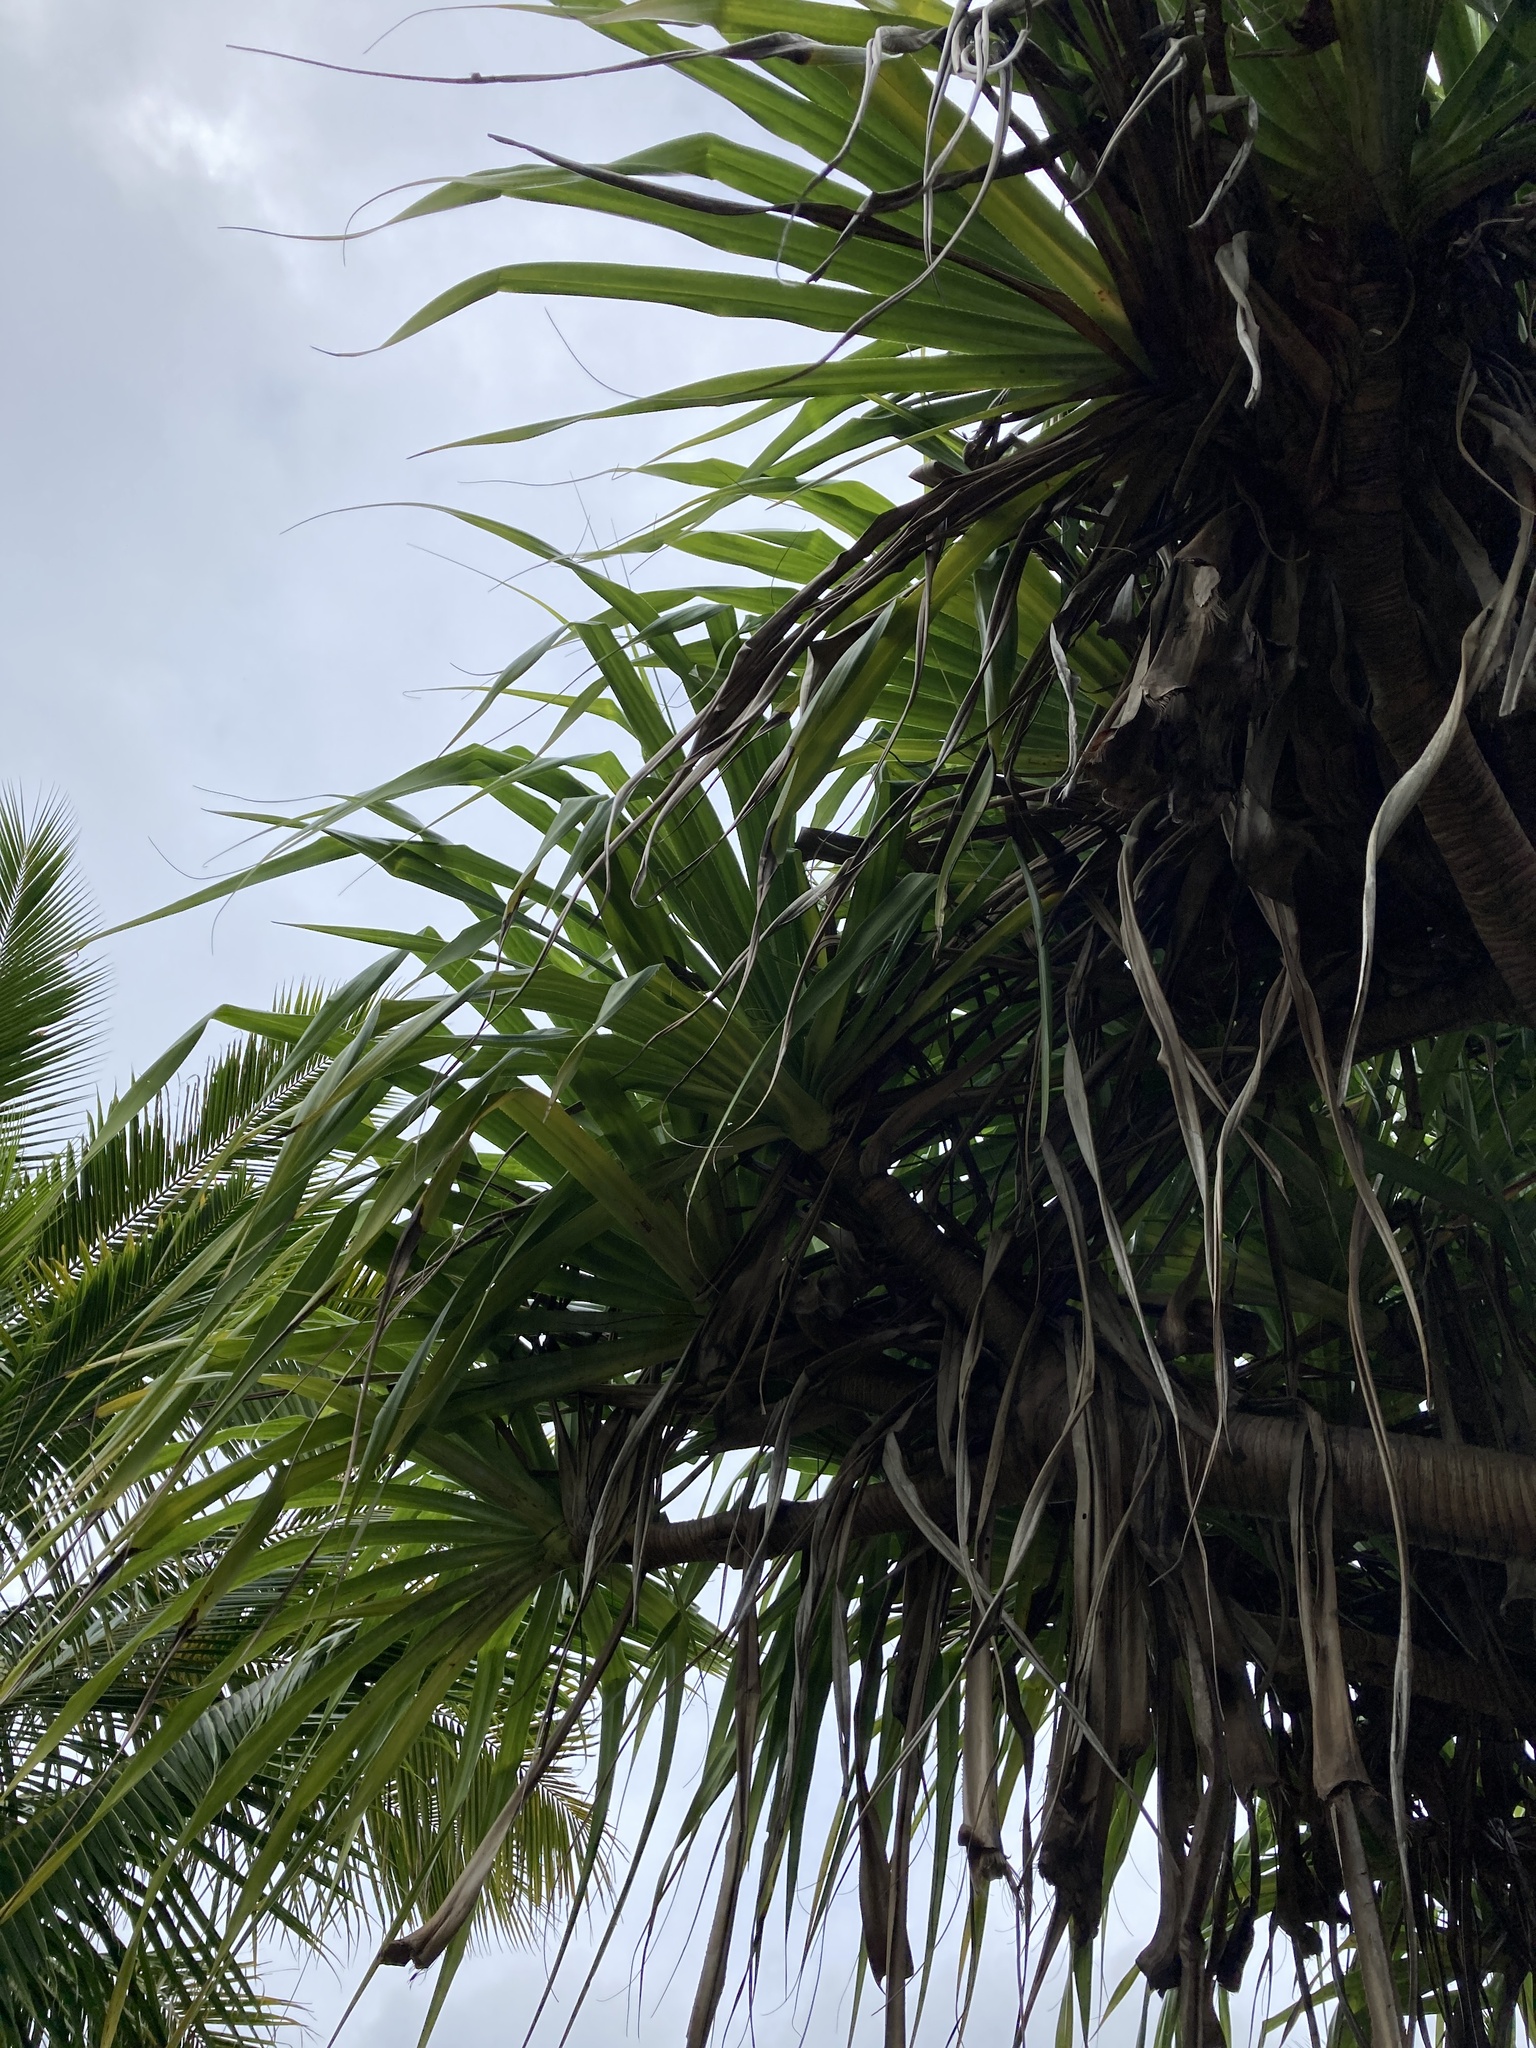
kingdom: Plantae
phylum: Tracheophyta
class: Liliopsida
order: Pandanales
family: Pandanaceae
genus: Pandanus
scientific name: Pandanus tectorius
